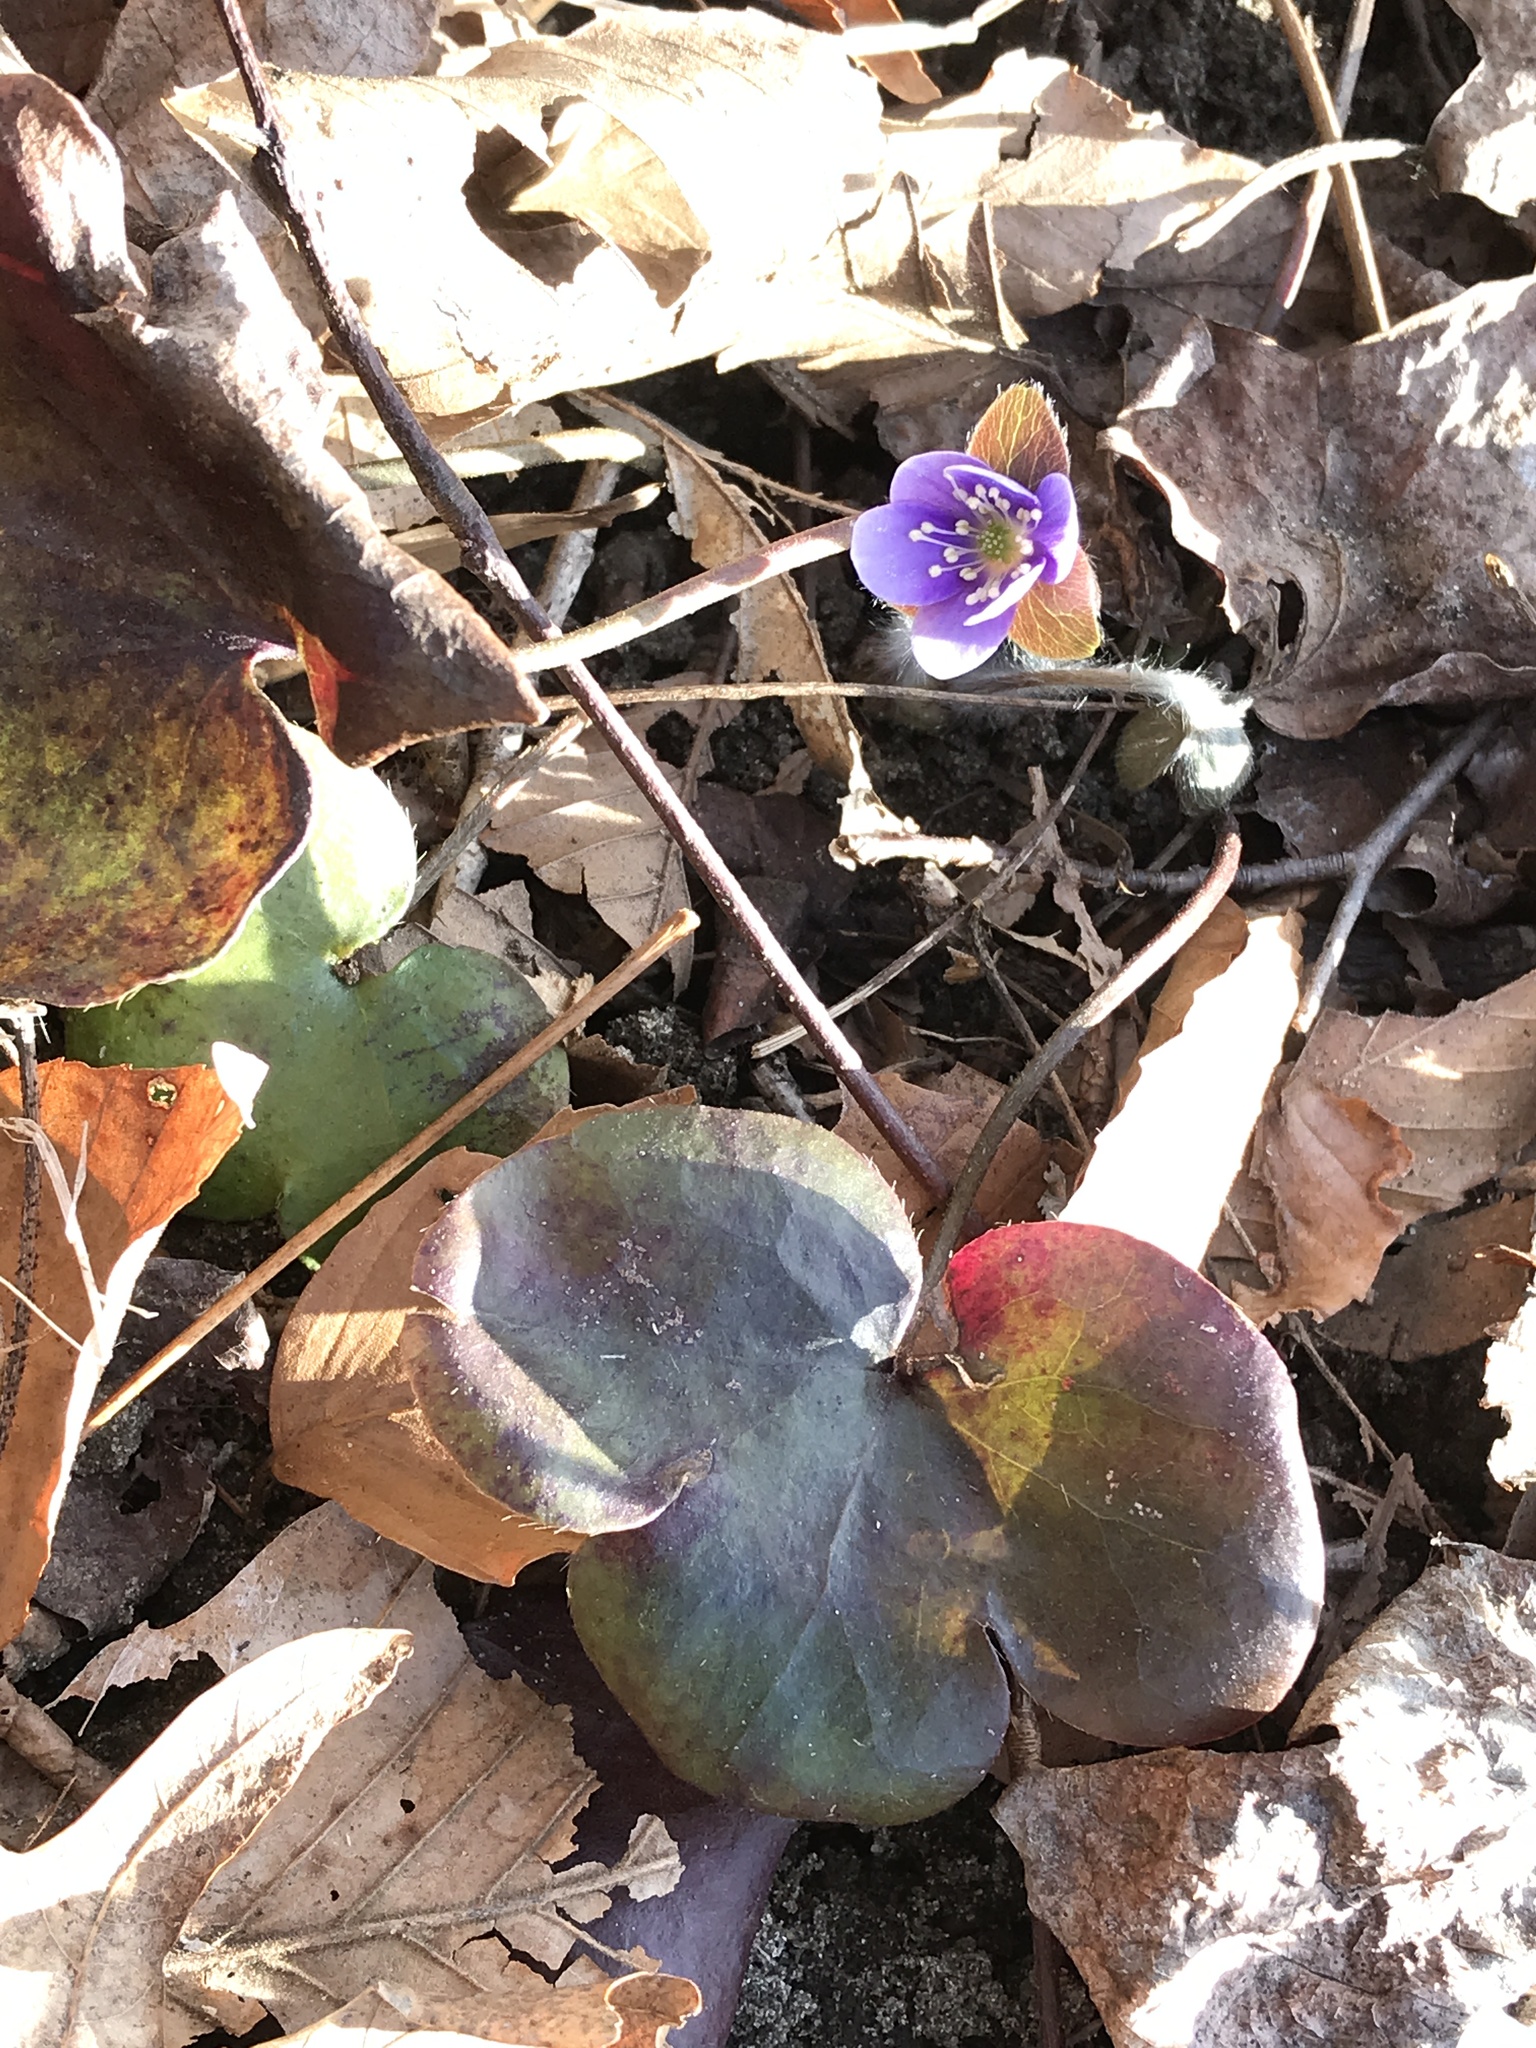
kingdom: Plantae
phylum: Tracheophyta
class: Magnoliopsida
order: Ranunculales
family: Ranunculaceae
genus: Hepatica
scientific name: Hepatica americana
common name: American hepatica
